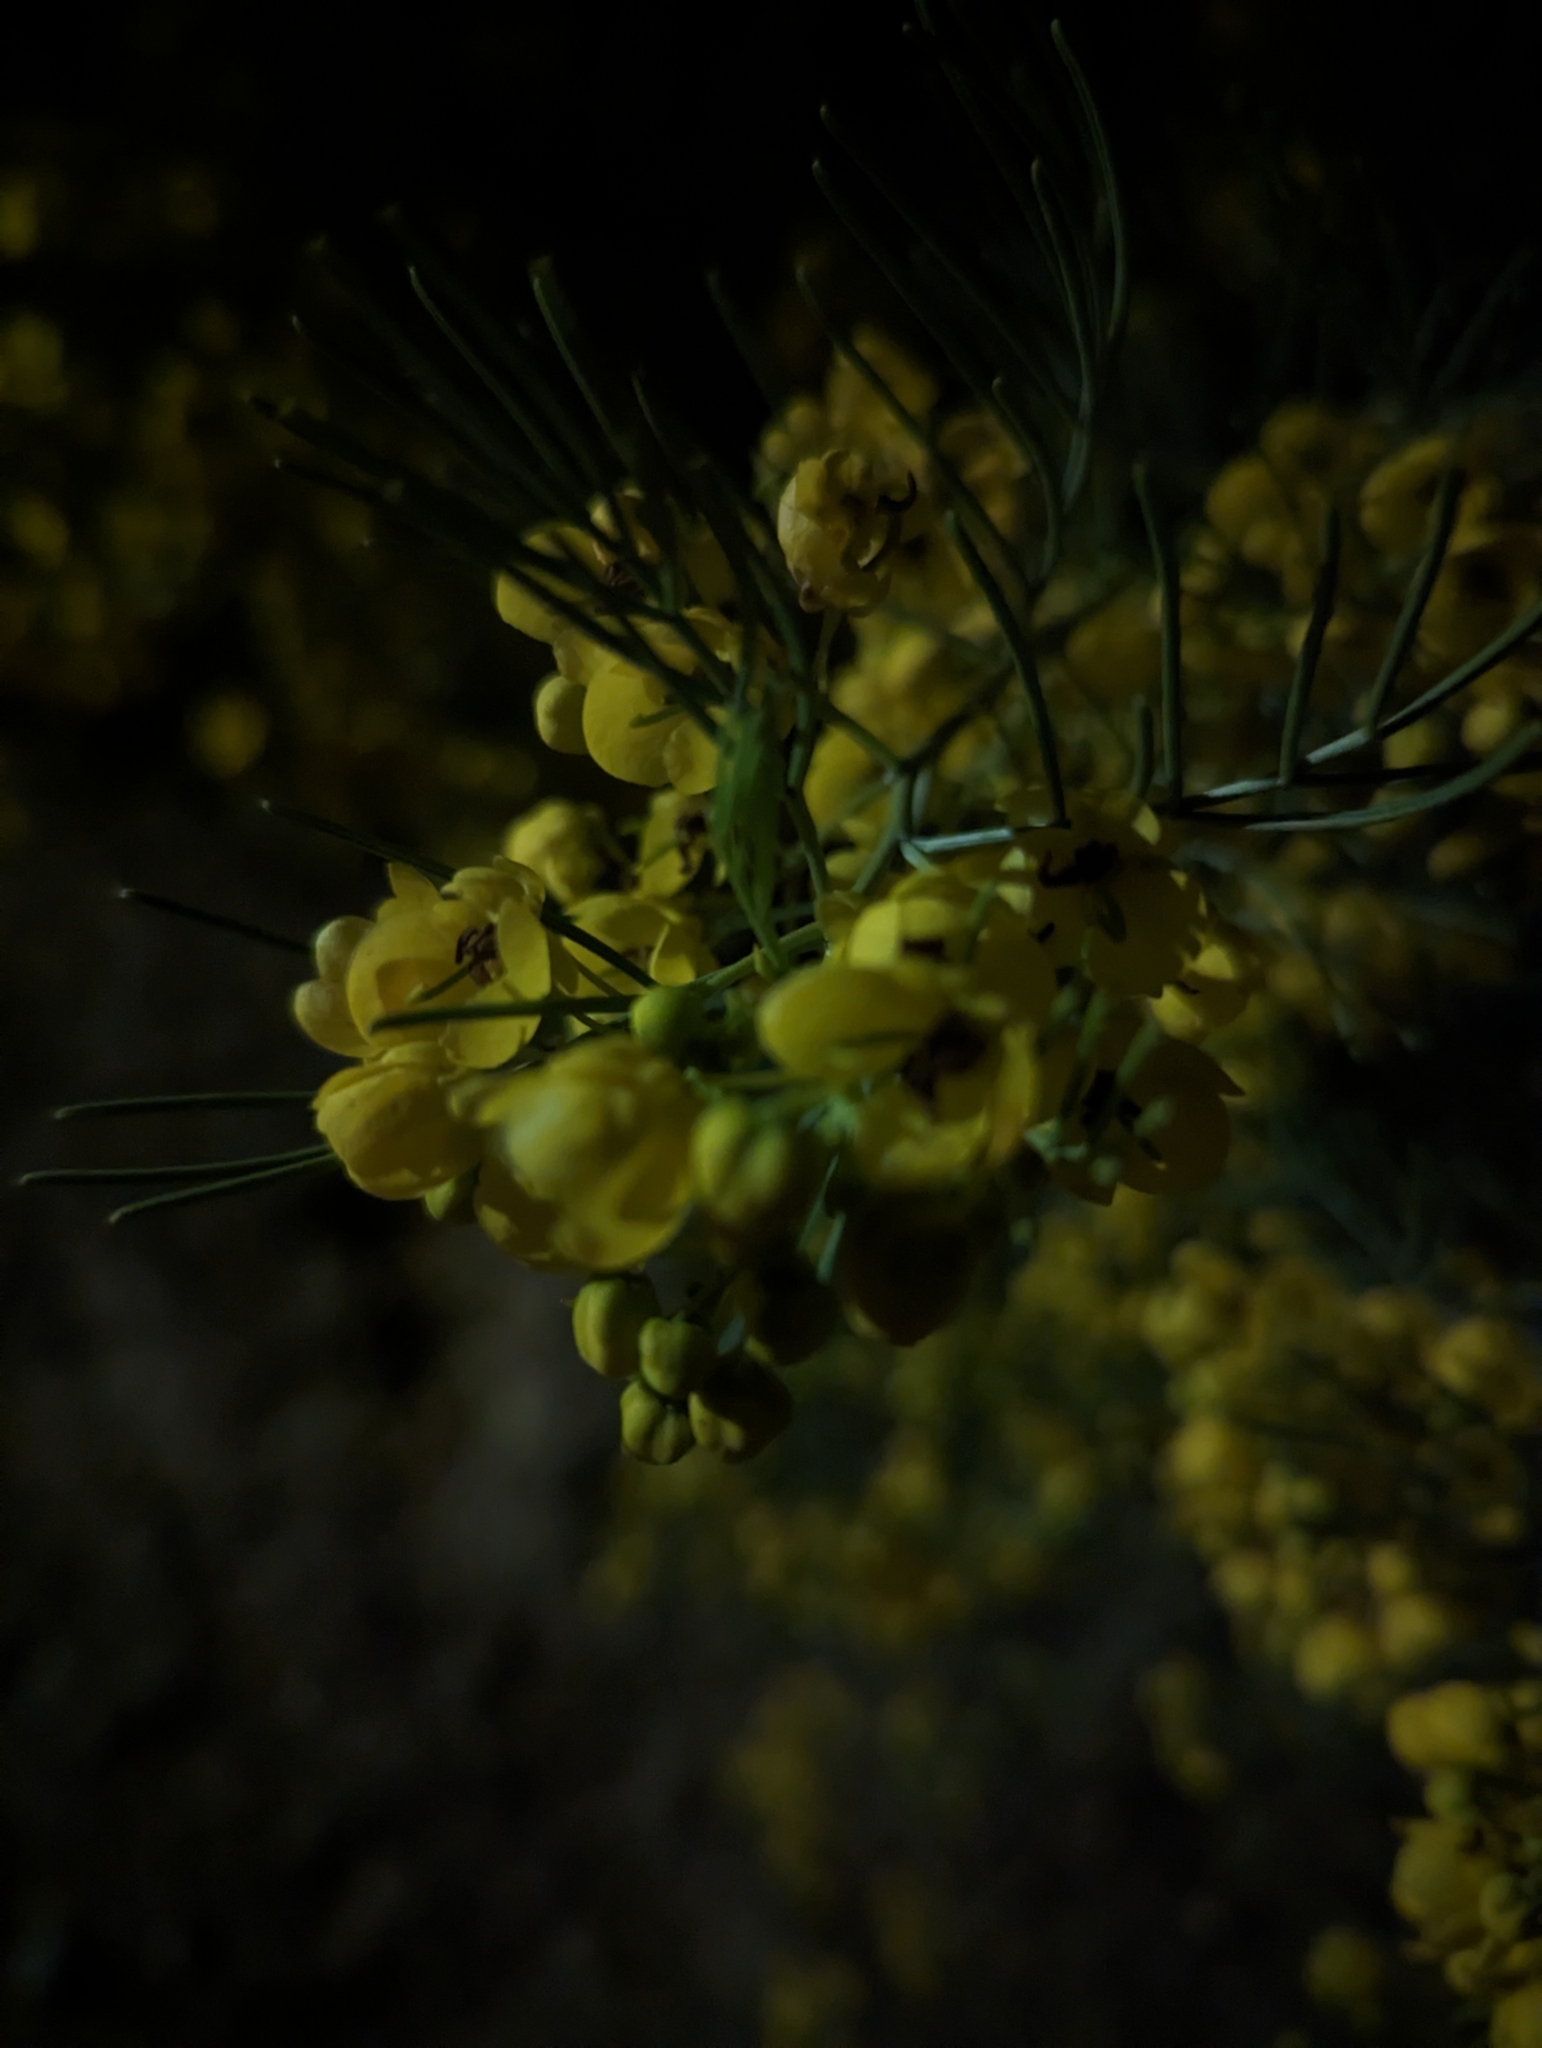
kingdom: Plantae
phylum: Tracheophyta
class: Magnoliopsida
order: Fabales
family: Fabaceae
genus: Senna
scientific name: Senna artemisioides
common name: Burnt-leaved acacia
